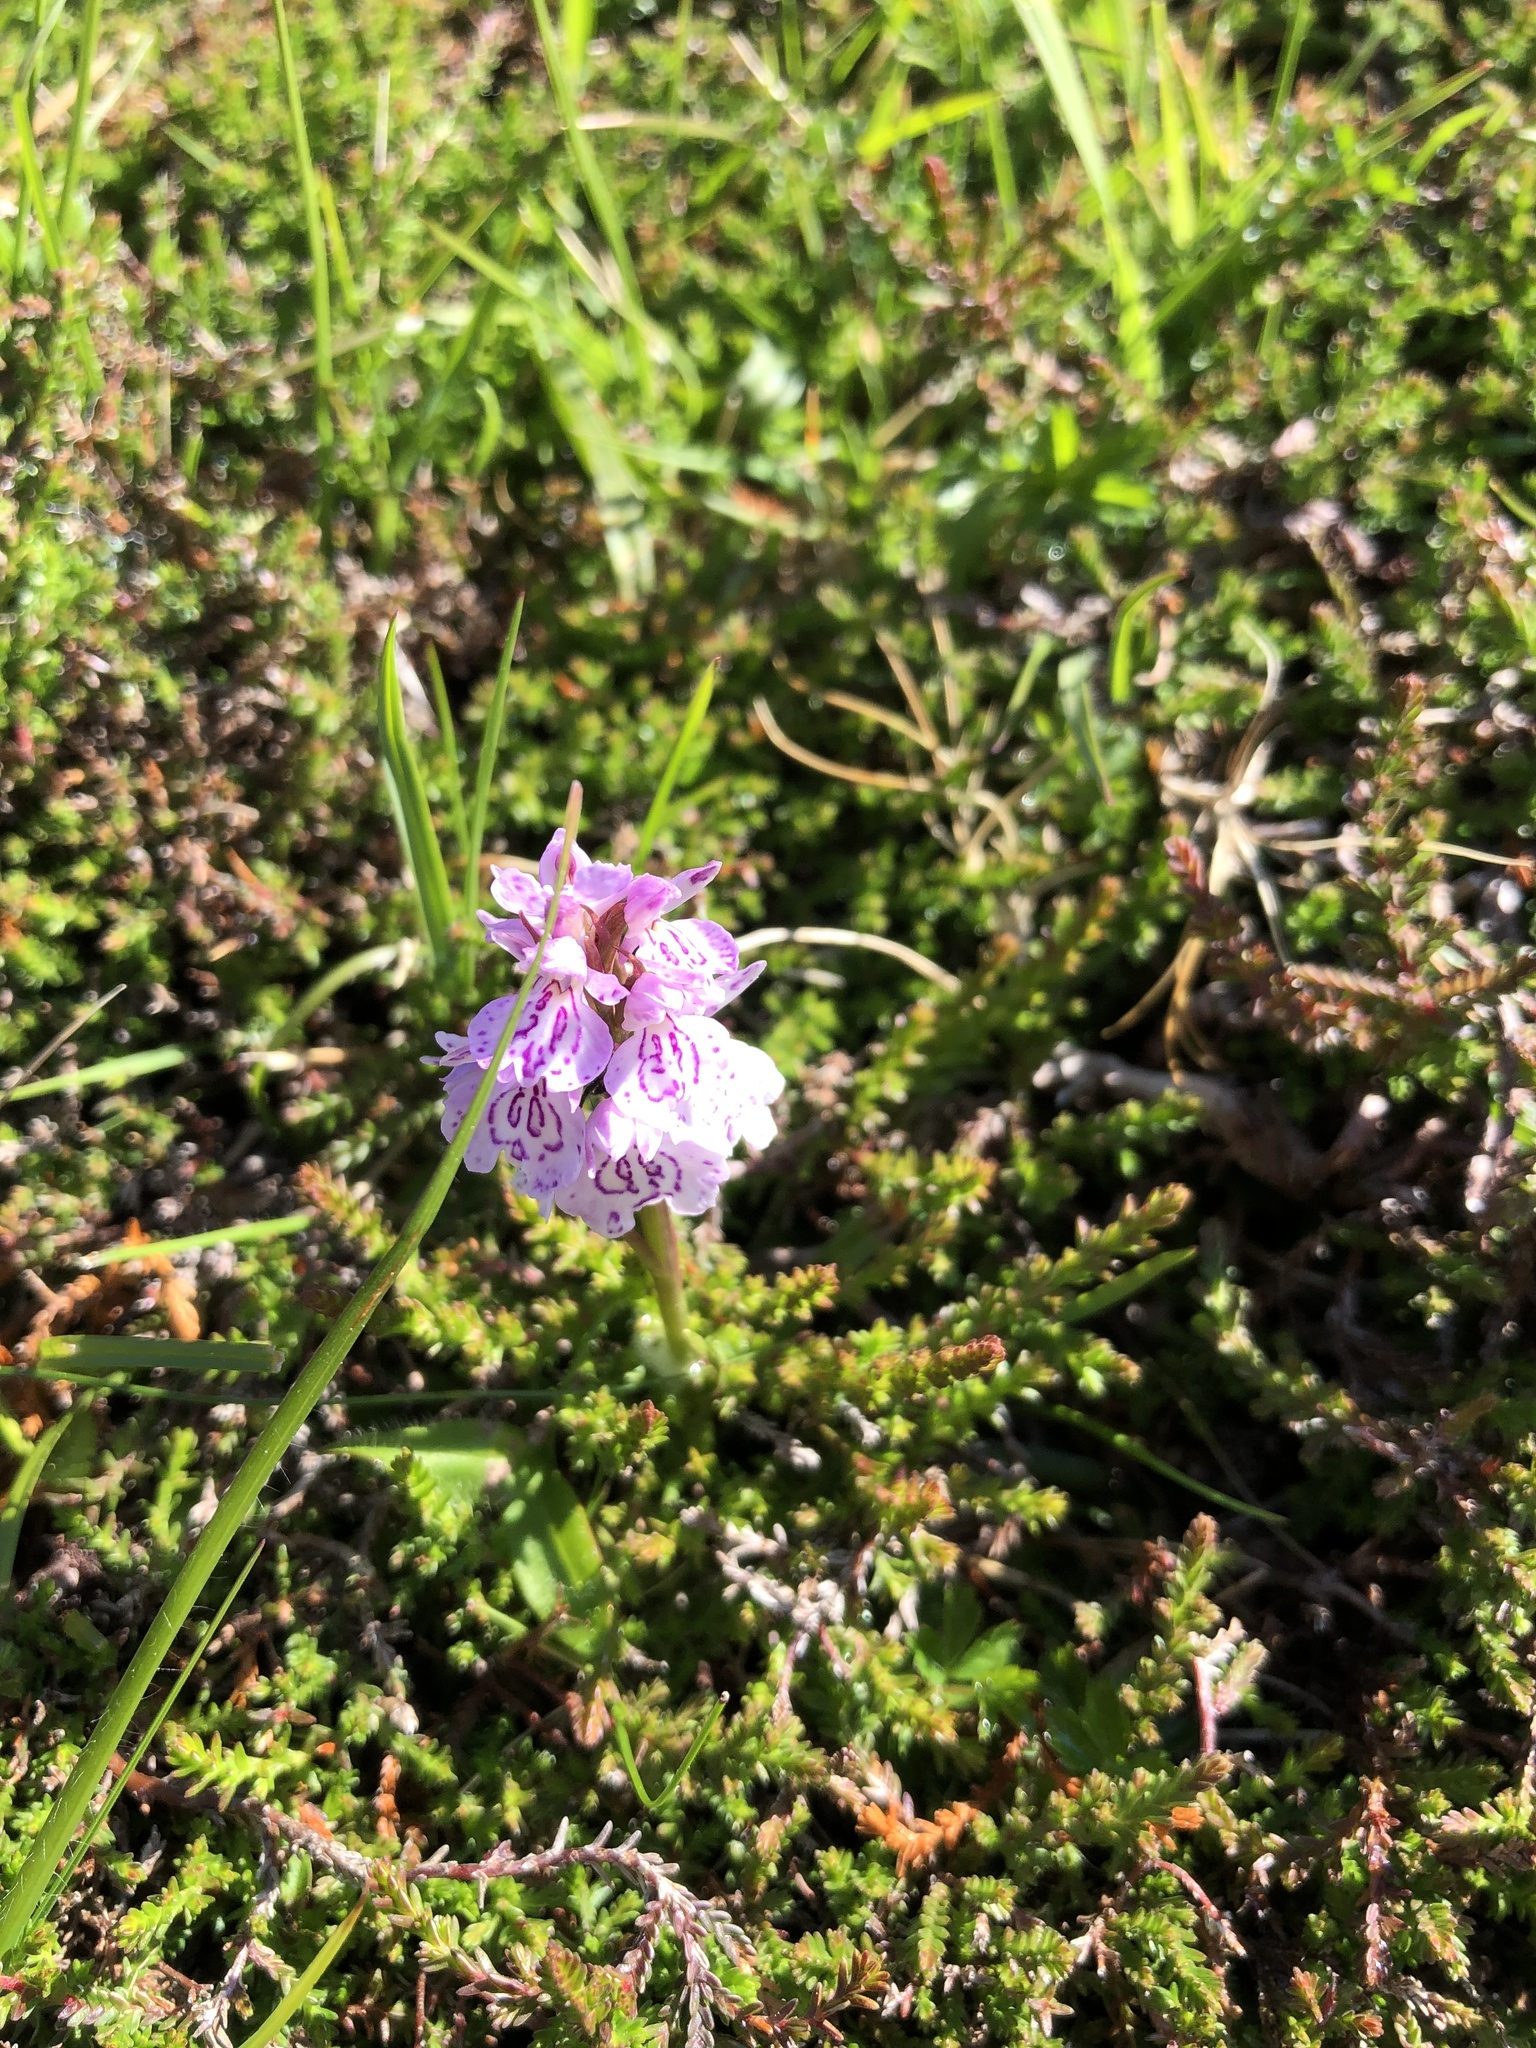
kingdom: Plantae
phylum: Tracheophyta
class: Liliopsida
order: Asparagales
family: Orchidaceae
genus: Dactylorhiza
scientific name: Dactylorhiza maculata
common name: Heath spotted-orchid
